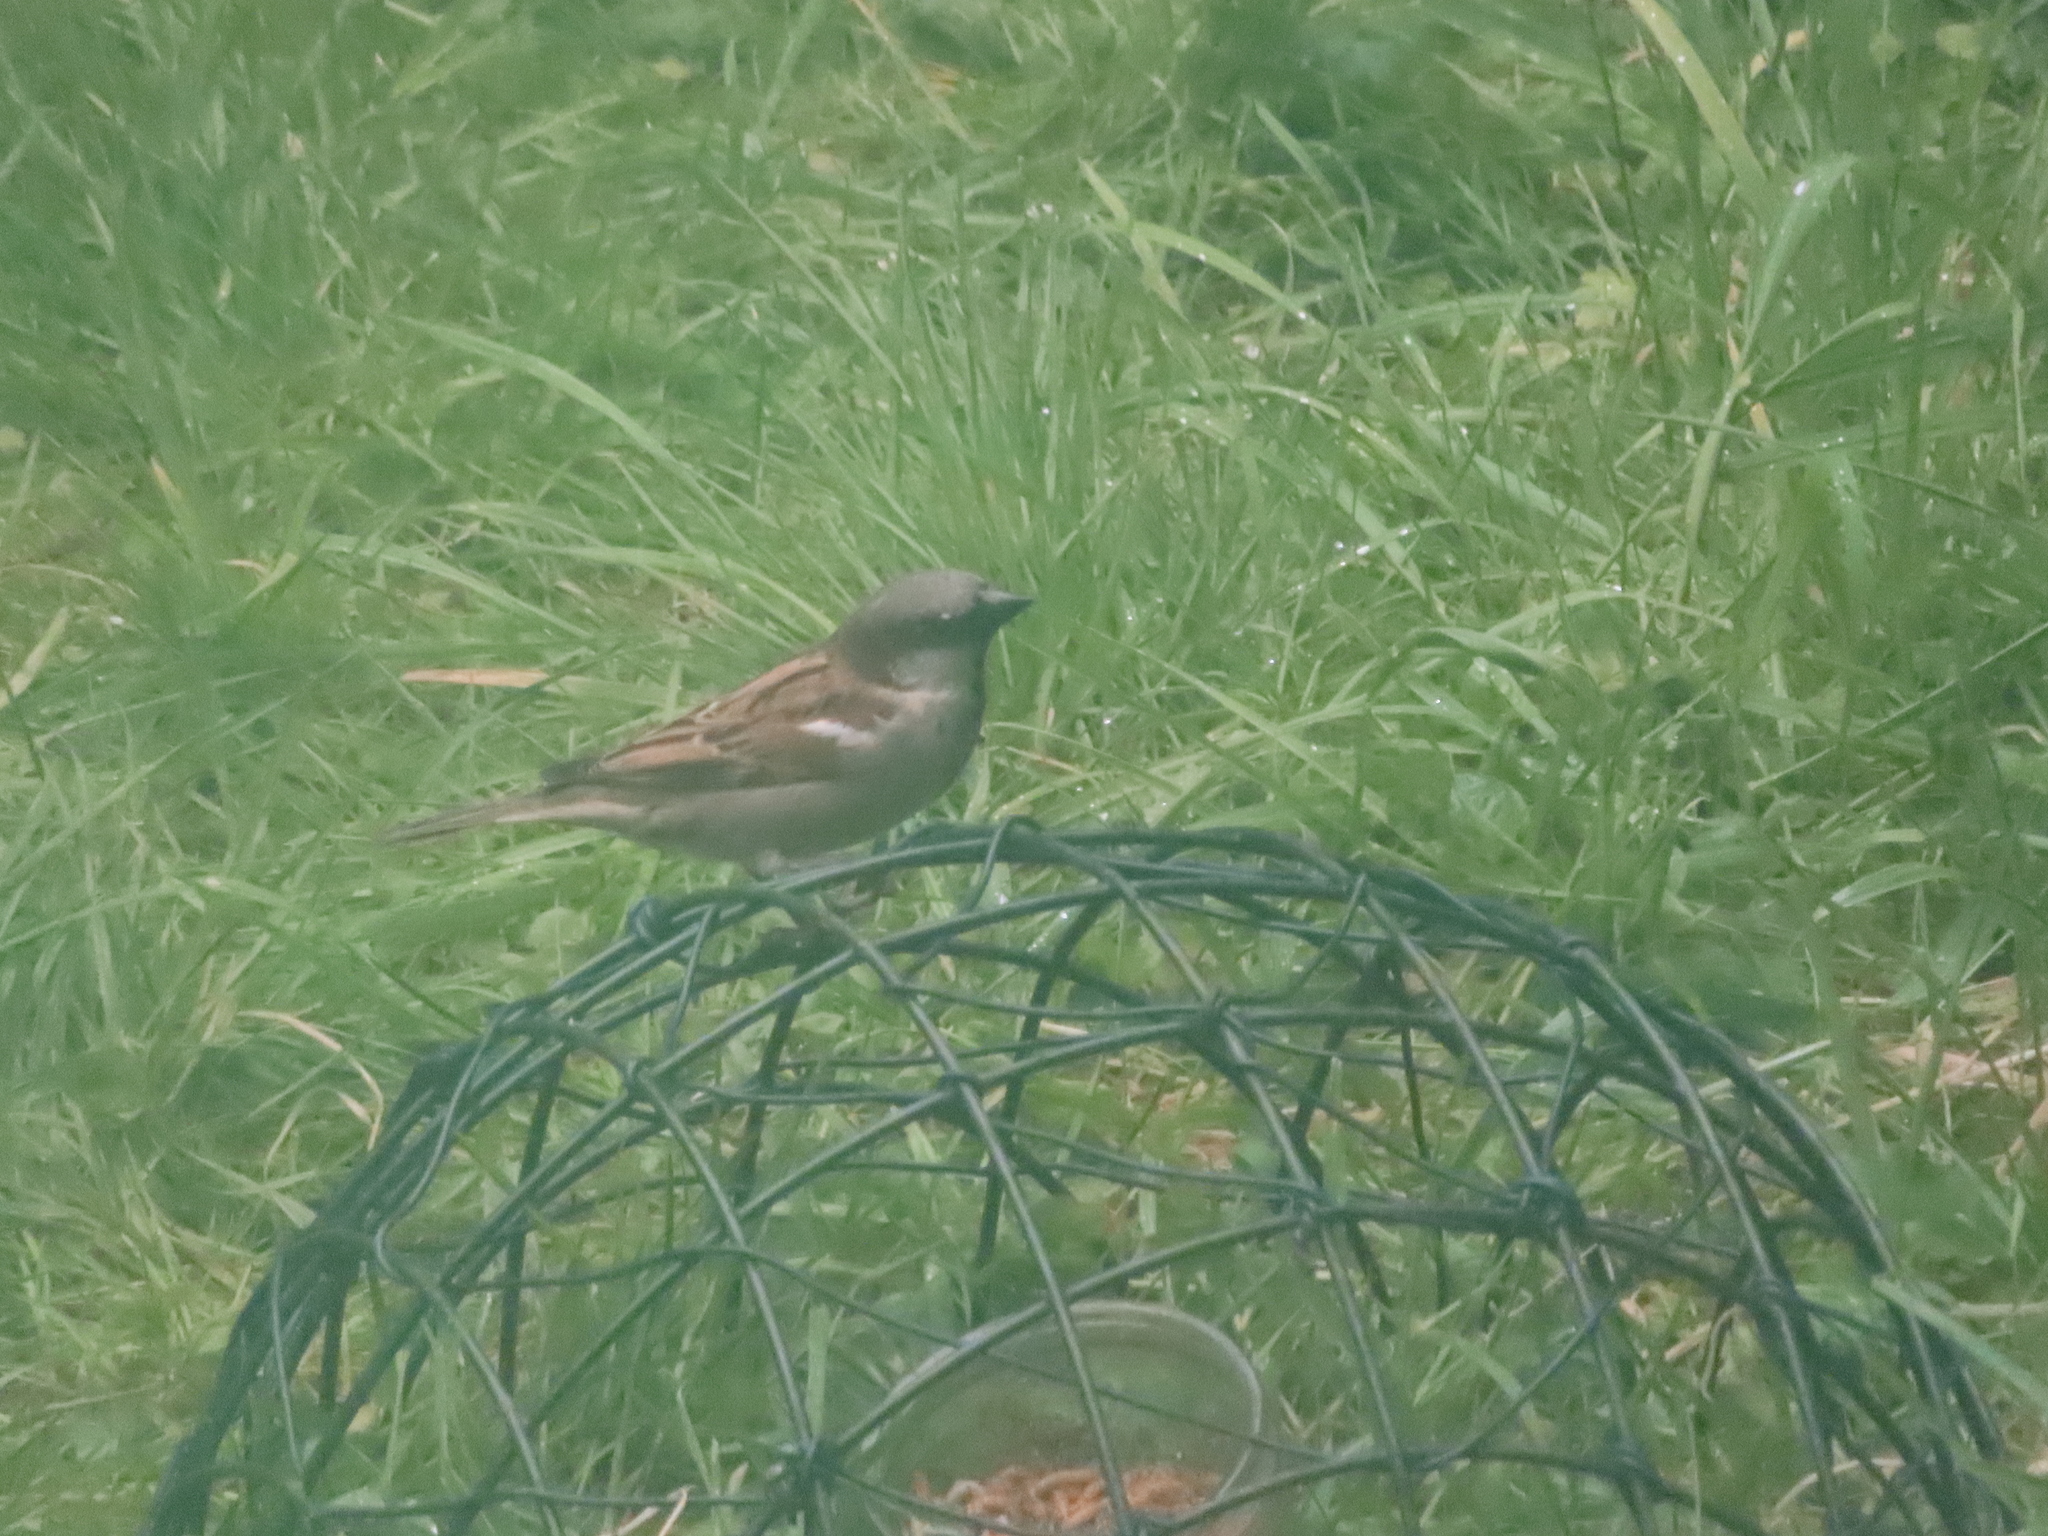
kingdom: Animalia
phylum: Chordata
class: Aves
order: Passeriformes
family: Passeridae
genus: Passer
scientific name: Passer domesticus
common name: House sparrow
